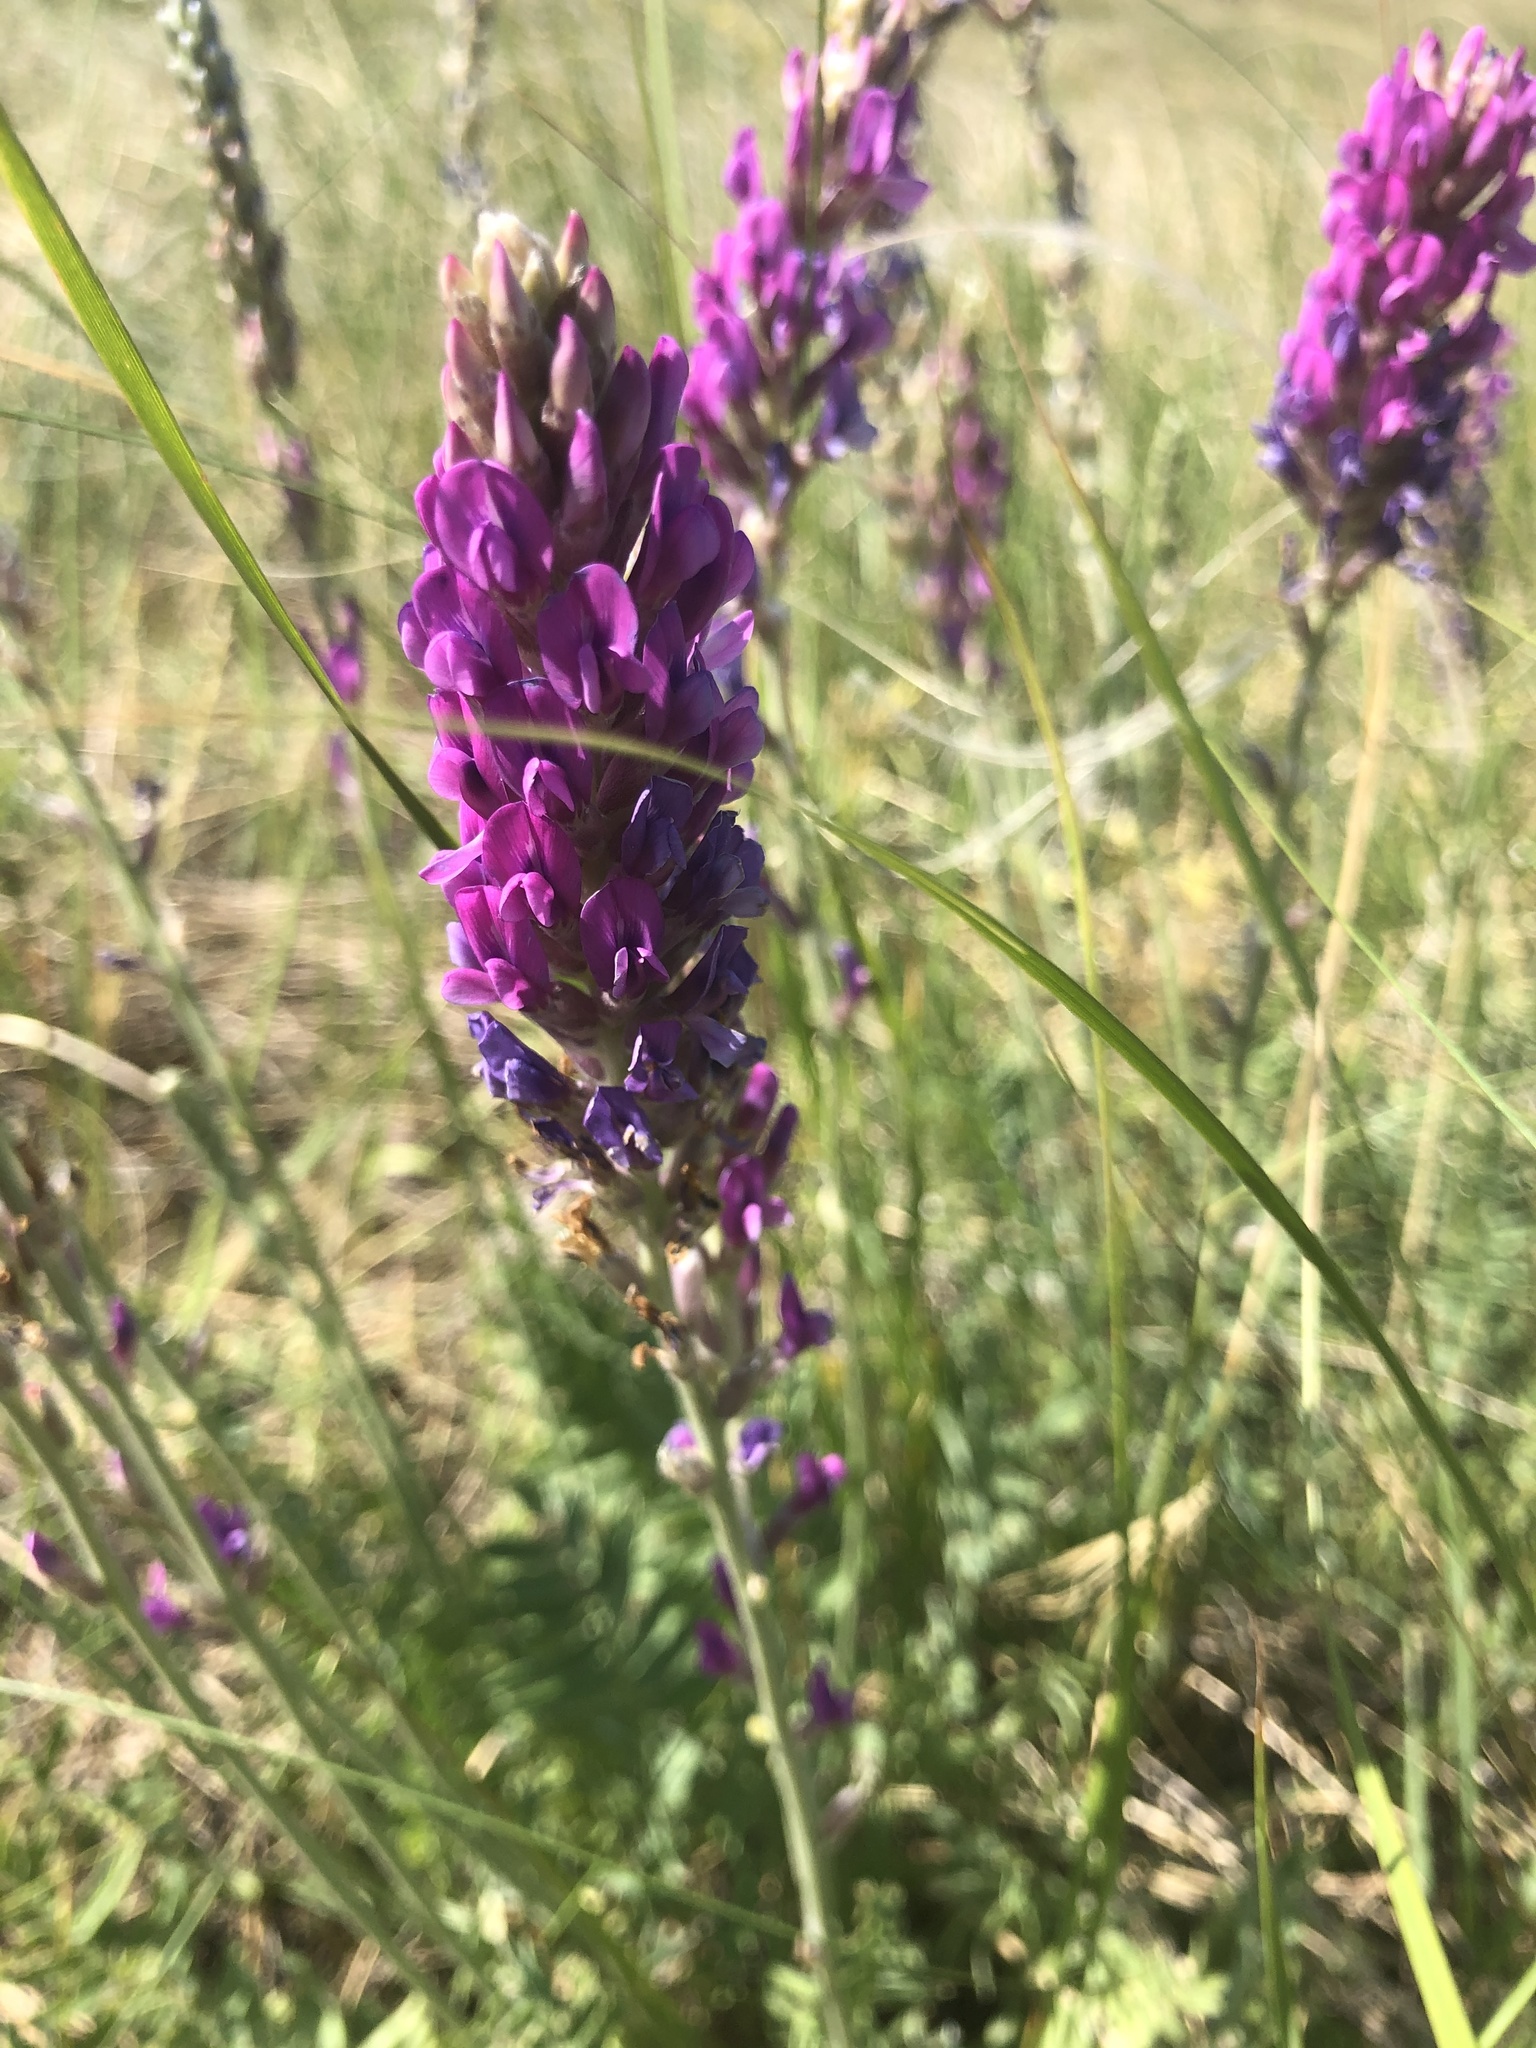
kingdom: Plantae
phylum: Tracheophyta
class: Magnoliopsida
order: Fabales
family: Fabaceae
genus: Oxytropis
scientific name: Oxytropis kasakorum
